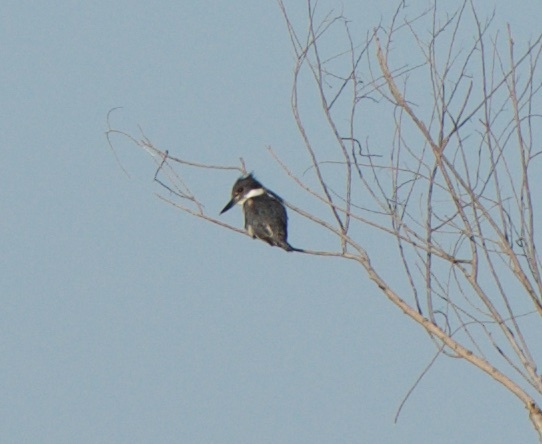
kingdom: Animalia
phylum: Chordata
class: Aves
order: Coraciiformes
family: Alcedinidae
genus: Megaceryle
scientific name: Megaceryle alcyon
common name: Belted kingfisher
